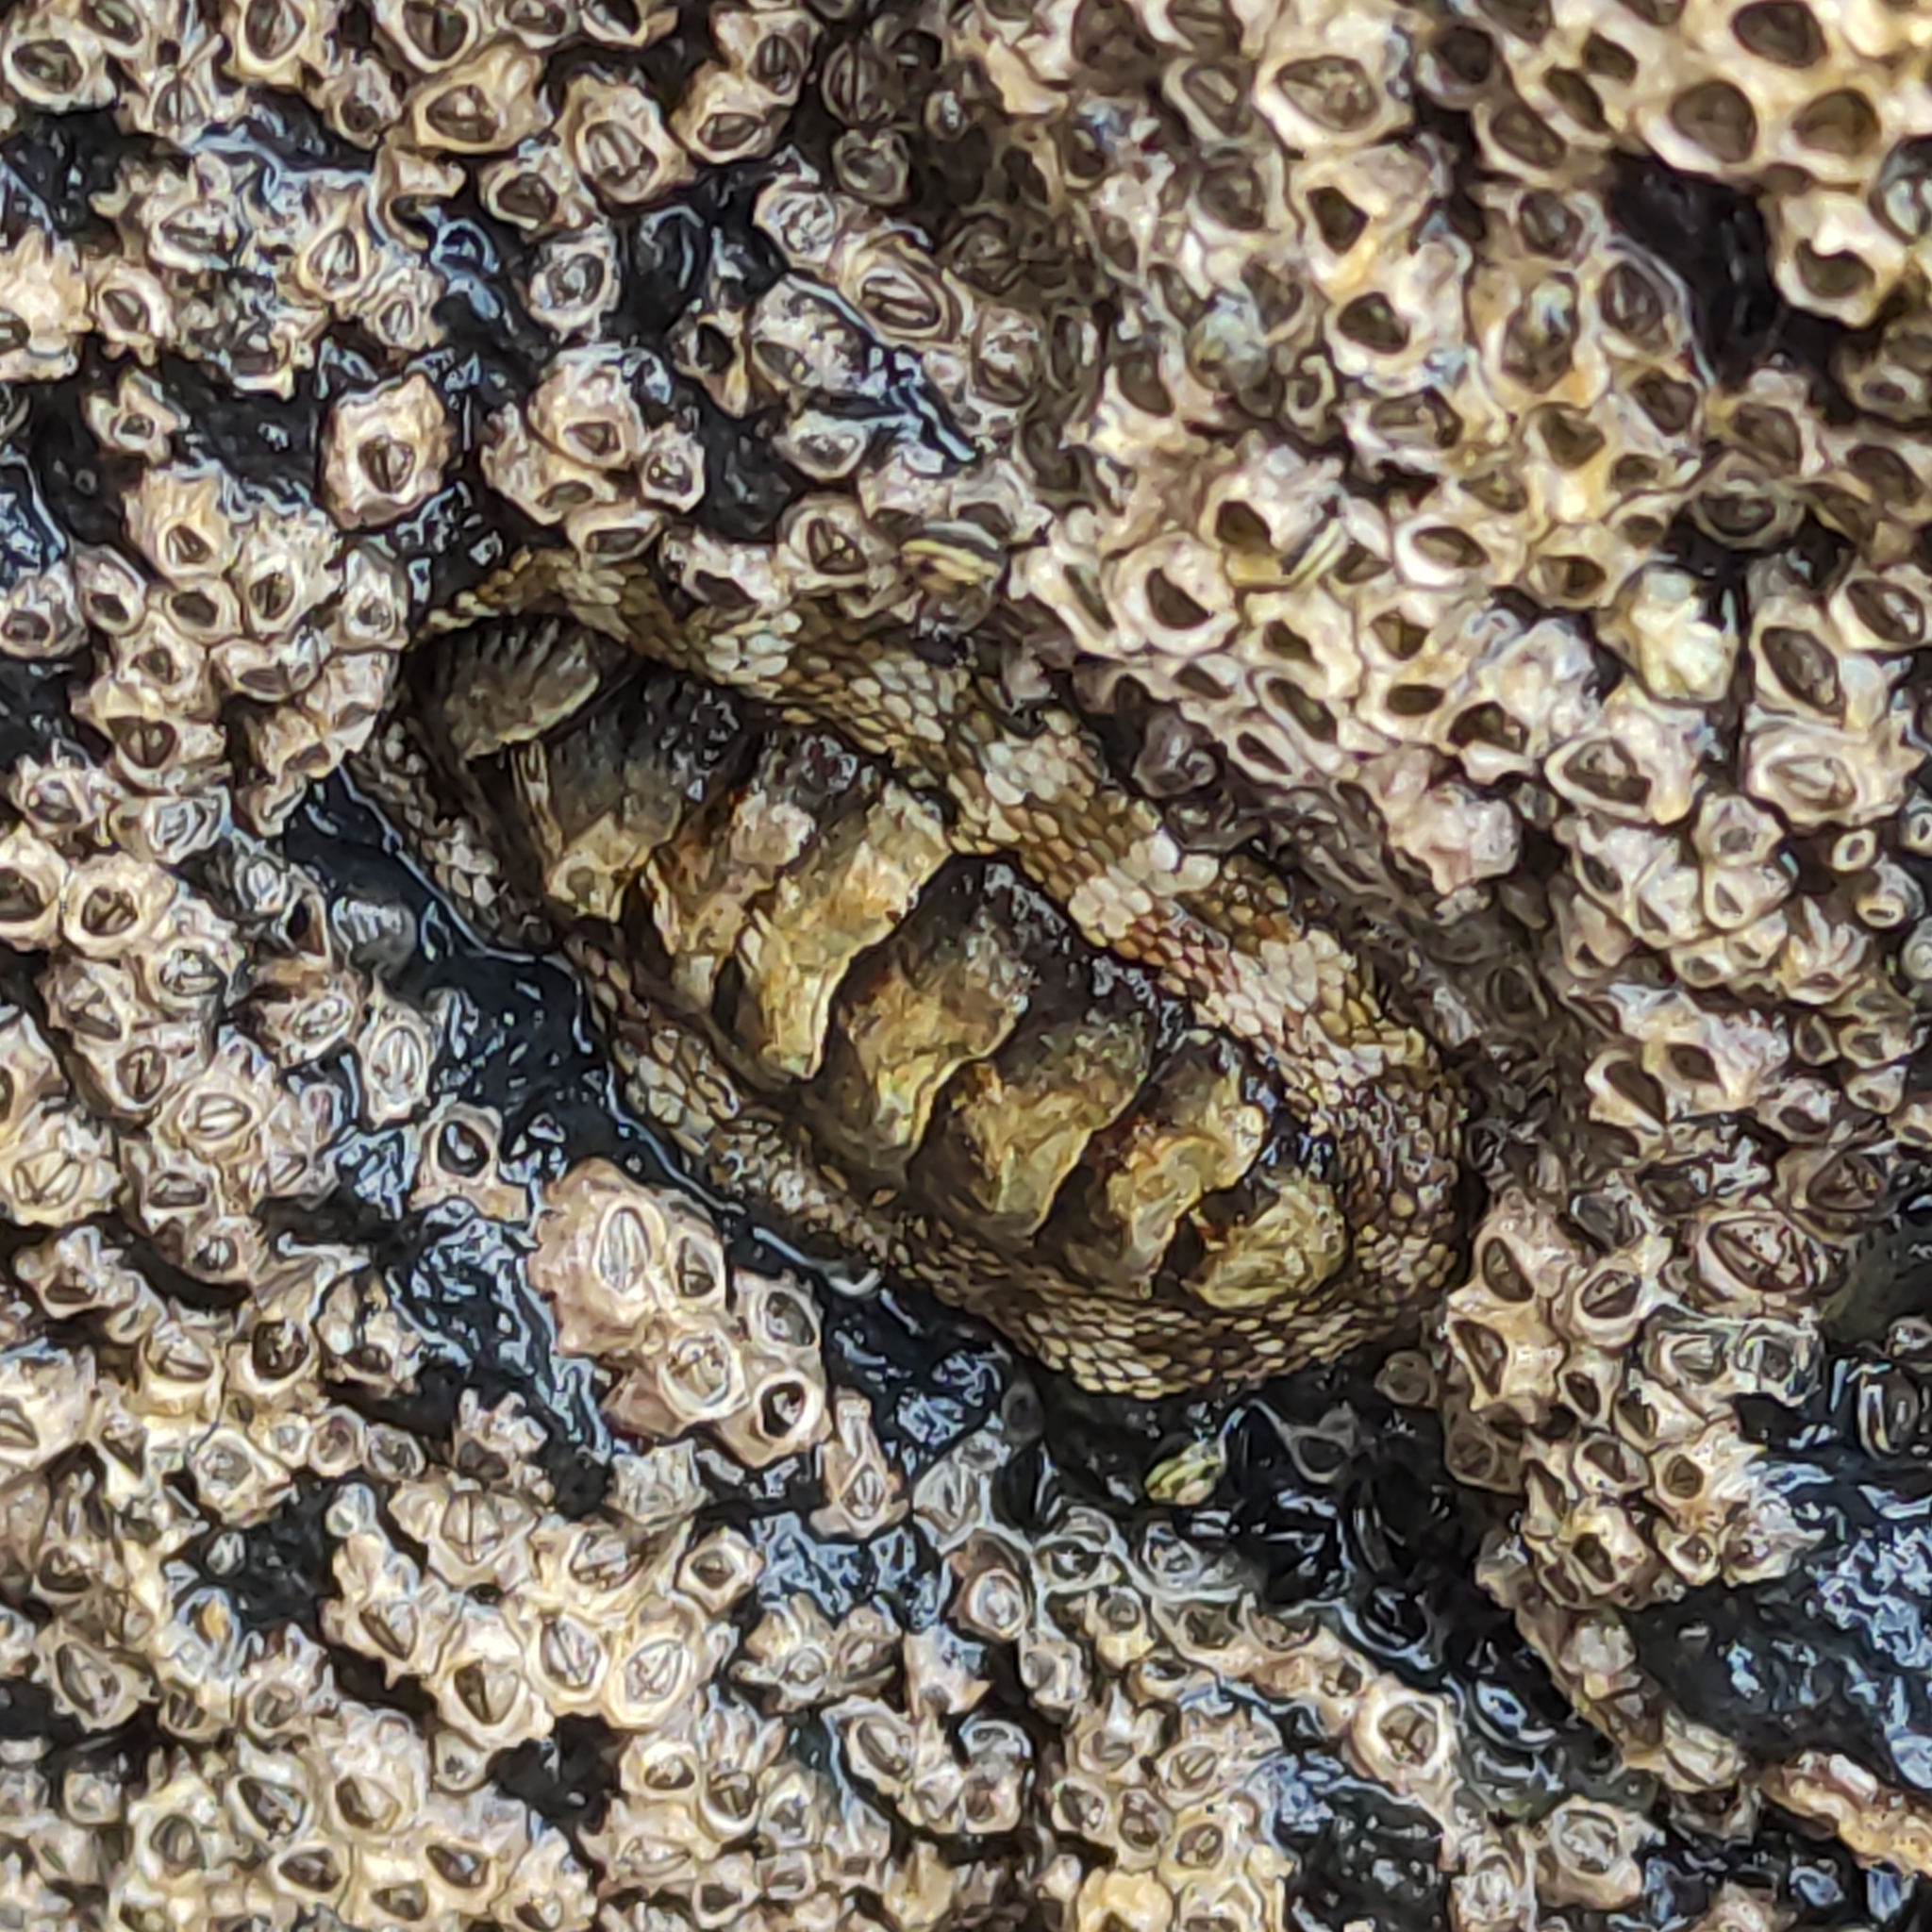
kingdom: Animalia
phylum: Mollusca
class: Polyplacophora
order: Chitonida
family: Chitonidae
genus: Sypharochiton
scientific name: Sypharochiton pelliserpentis
